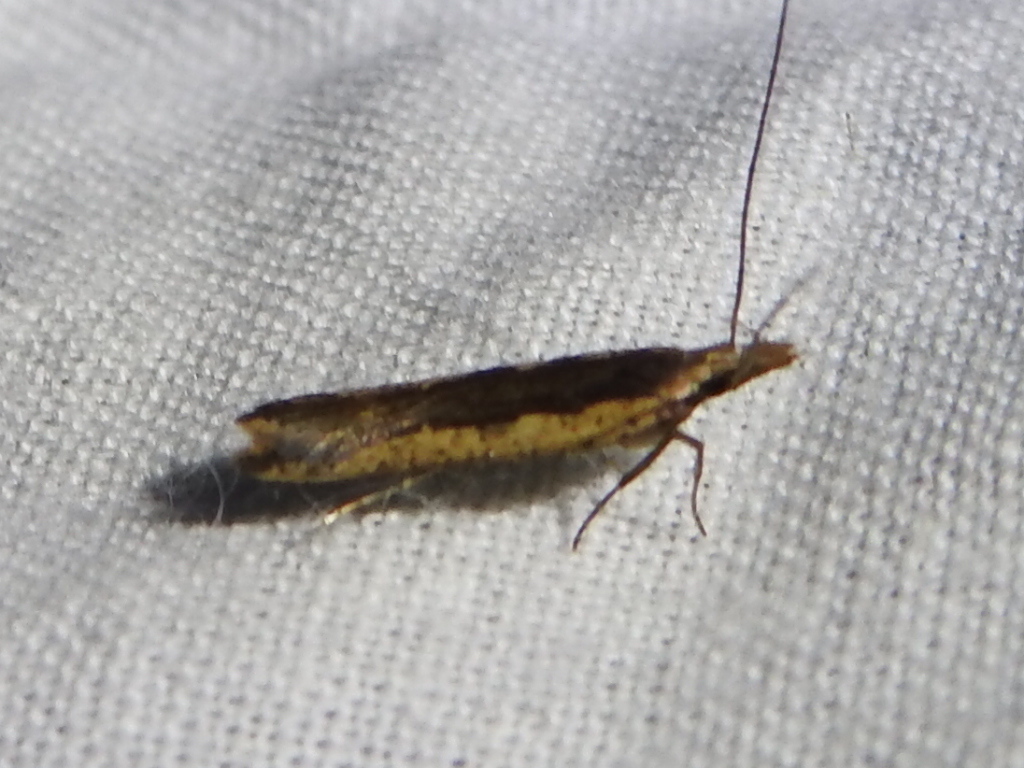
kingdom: Animalia
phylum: Arthropoda
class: Insecta
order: Lepidoptera
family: Gelechiidae
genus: Dichomeris
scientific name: Dichomeris ligulella
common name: Moth
